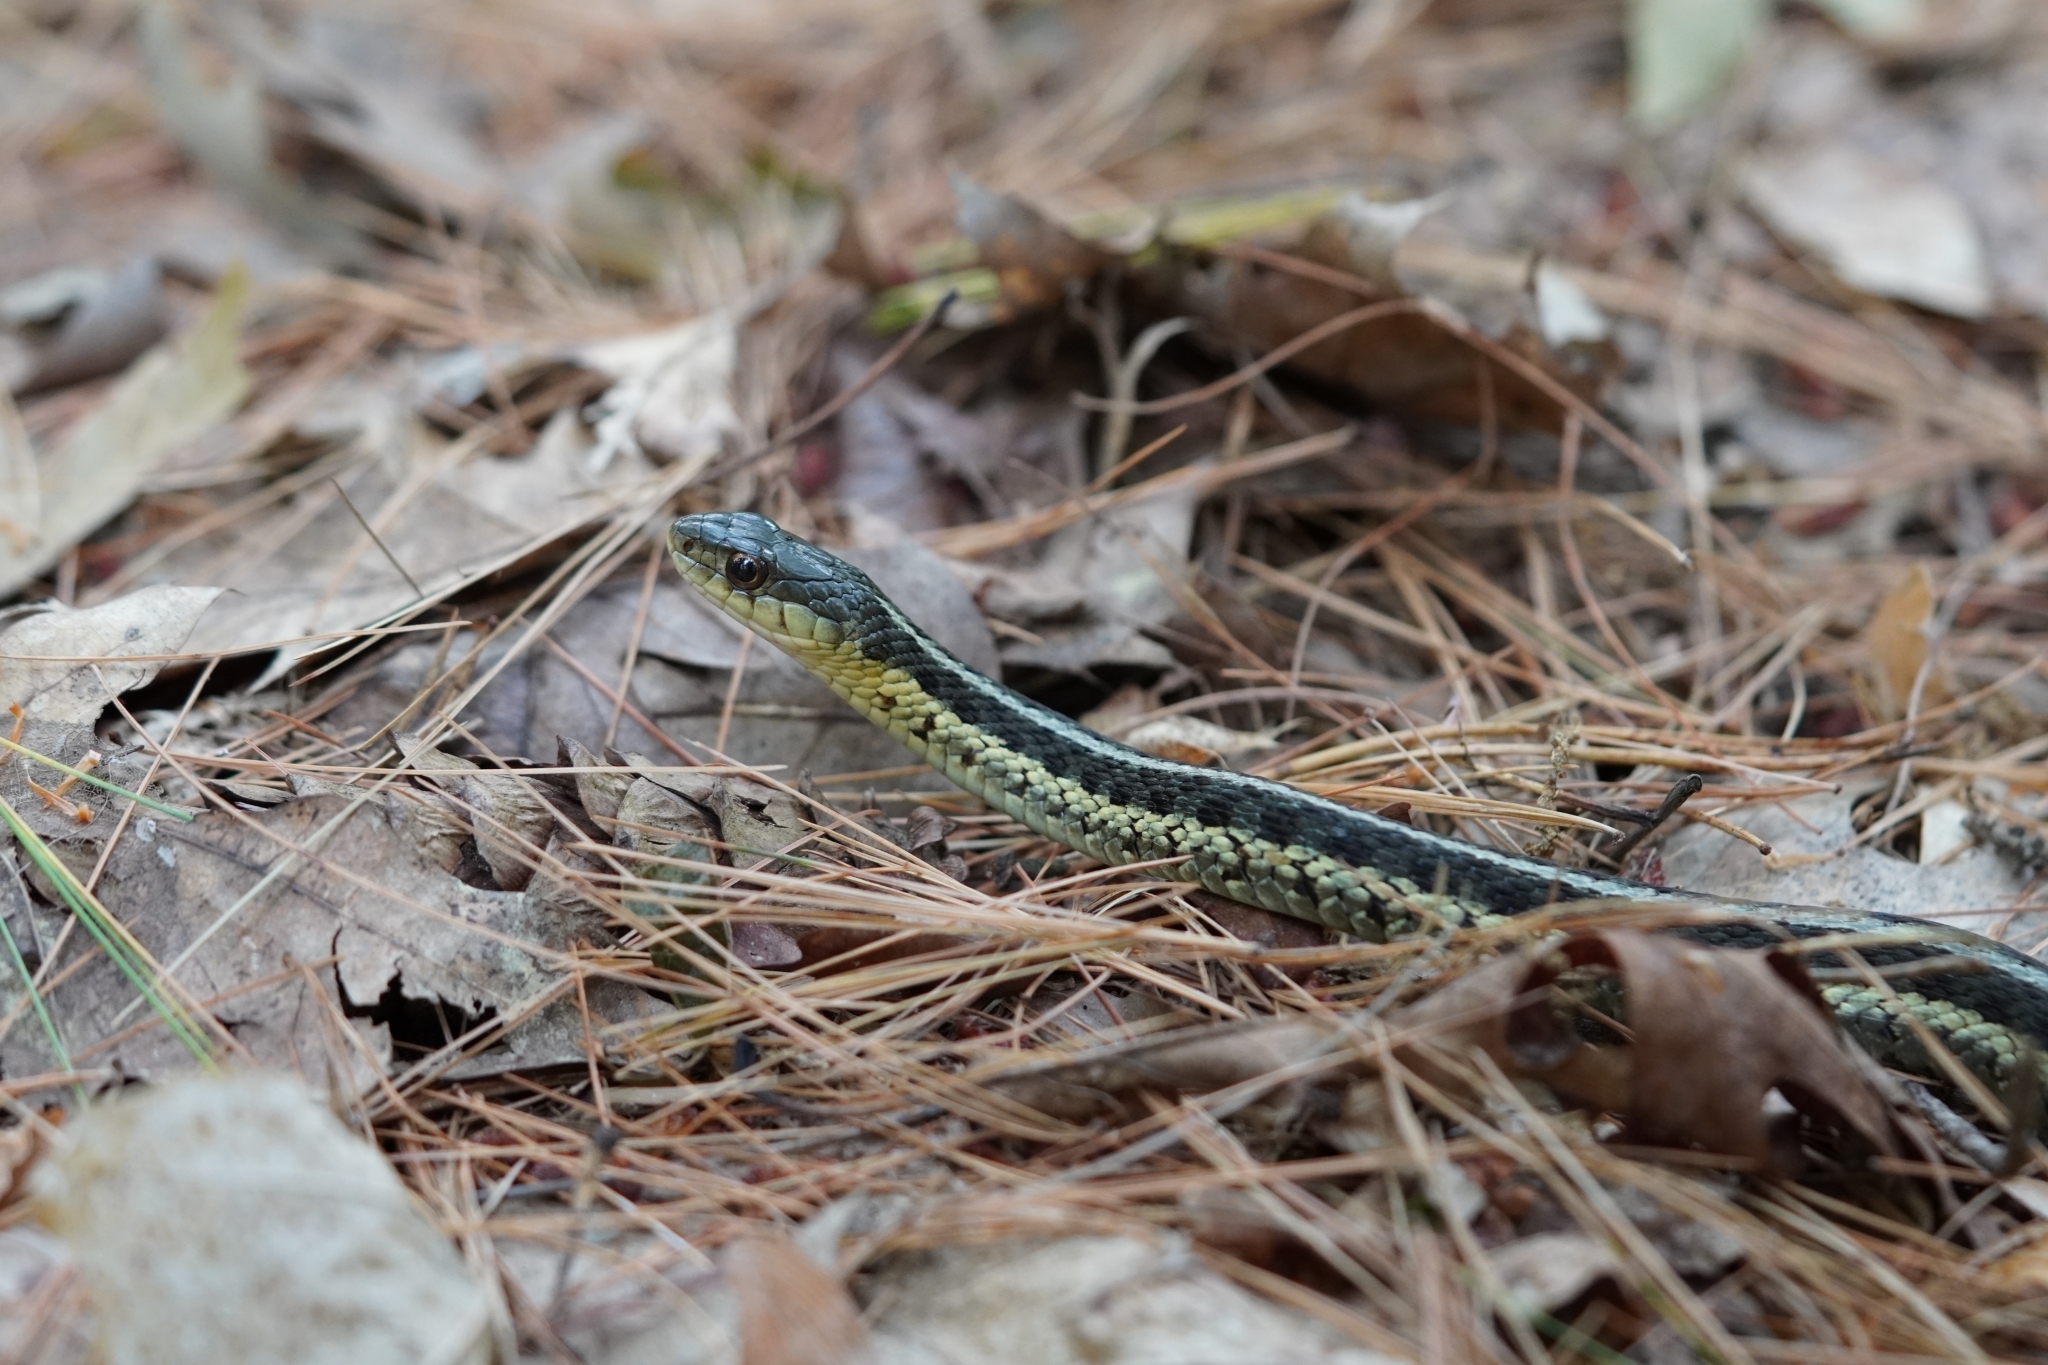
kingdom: Animalia
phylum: Chordata
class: Squamata
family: Colubridae
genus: Thamnophis
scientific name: Thamnophis sirtalis
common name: Common garter snake
